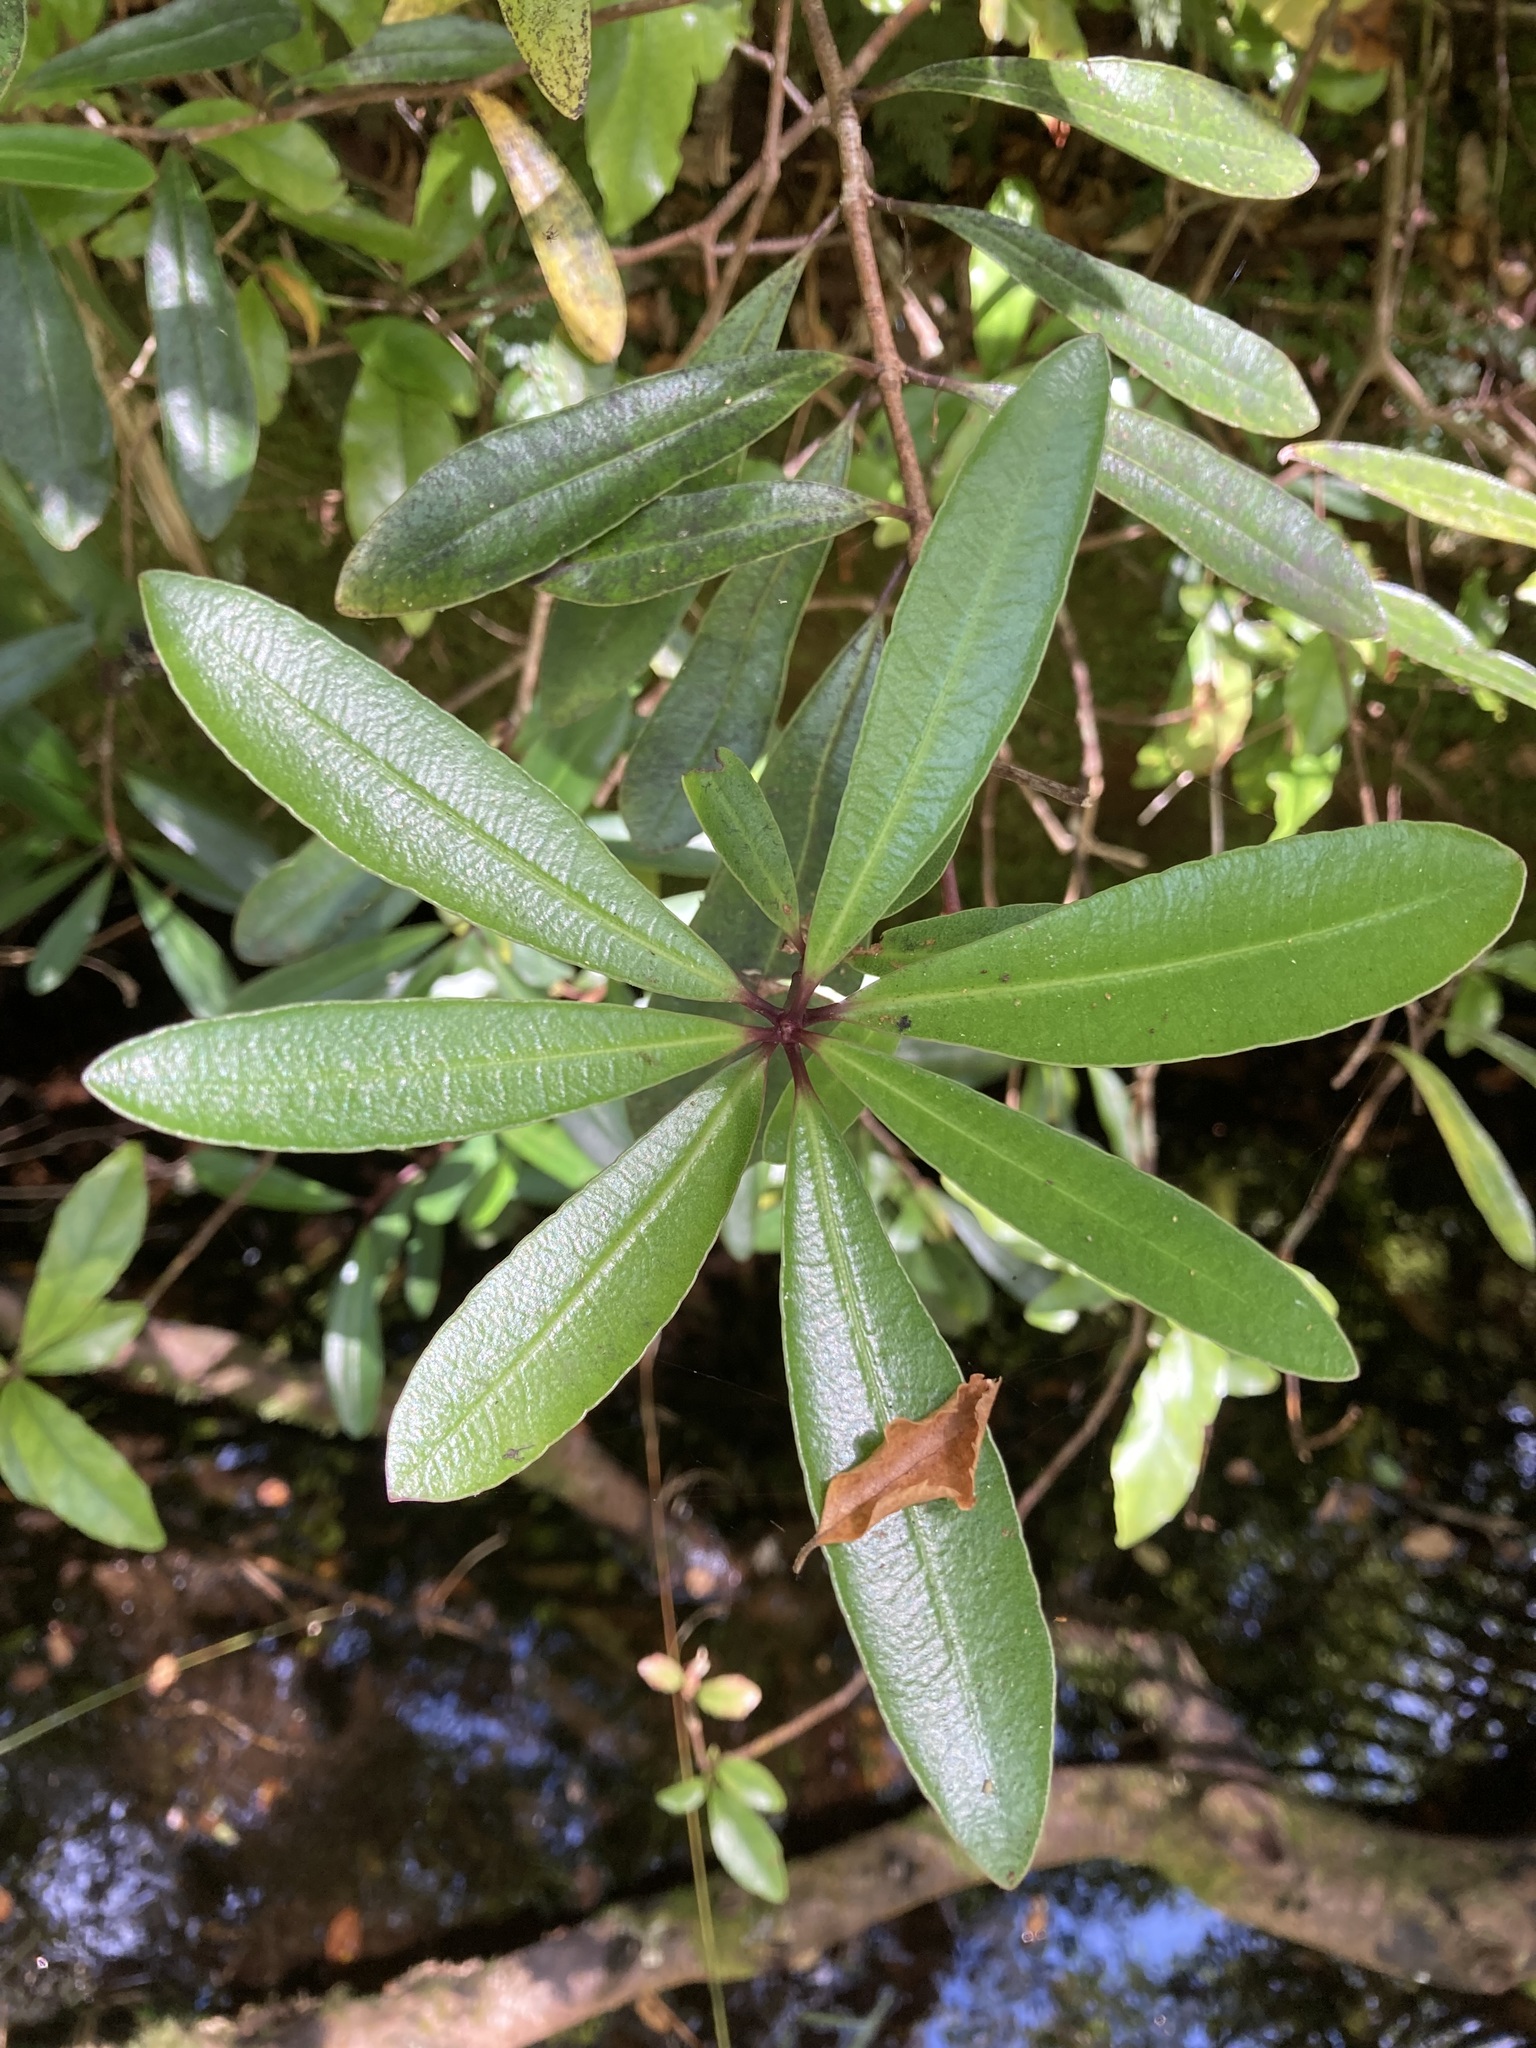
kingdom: Plantae
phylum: Tracheophyta
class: Magnoliopsida
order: Apiales
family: Pittosporaceae
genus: Pittosporum
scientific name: Pittosporum kirkii
